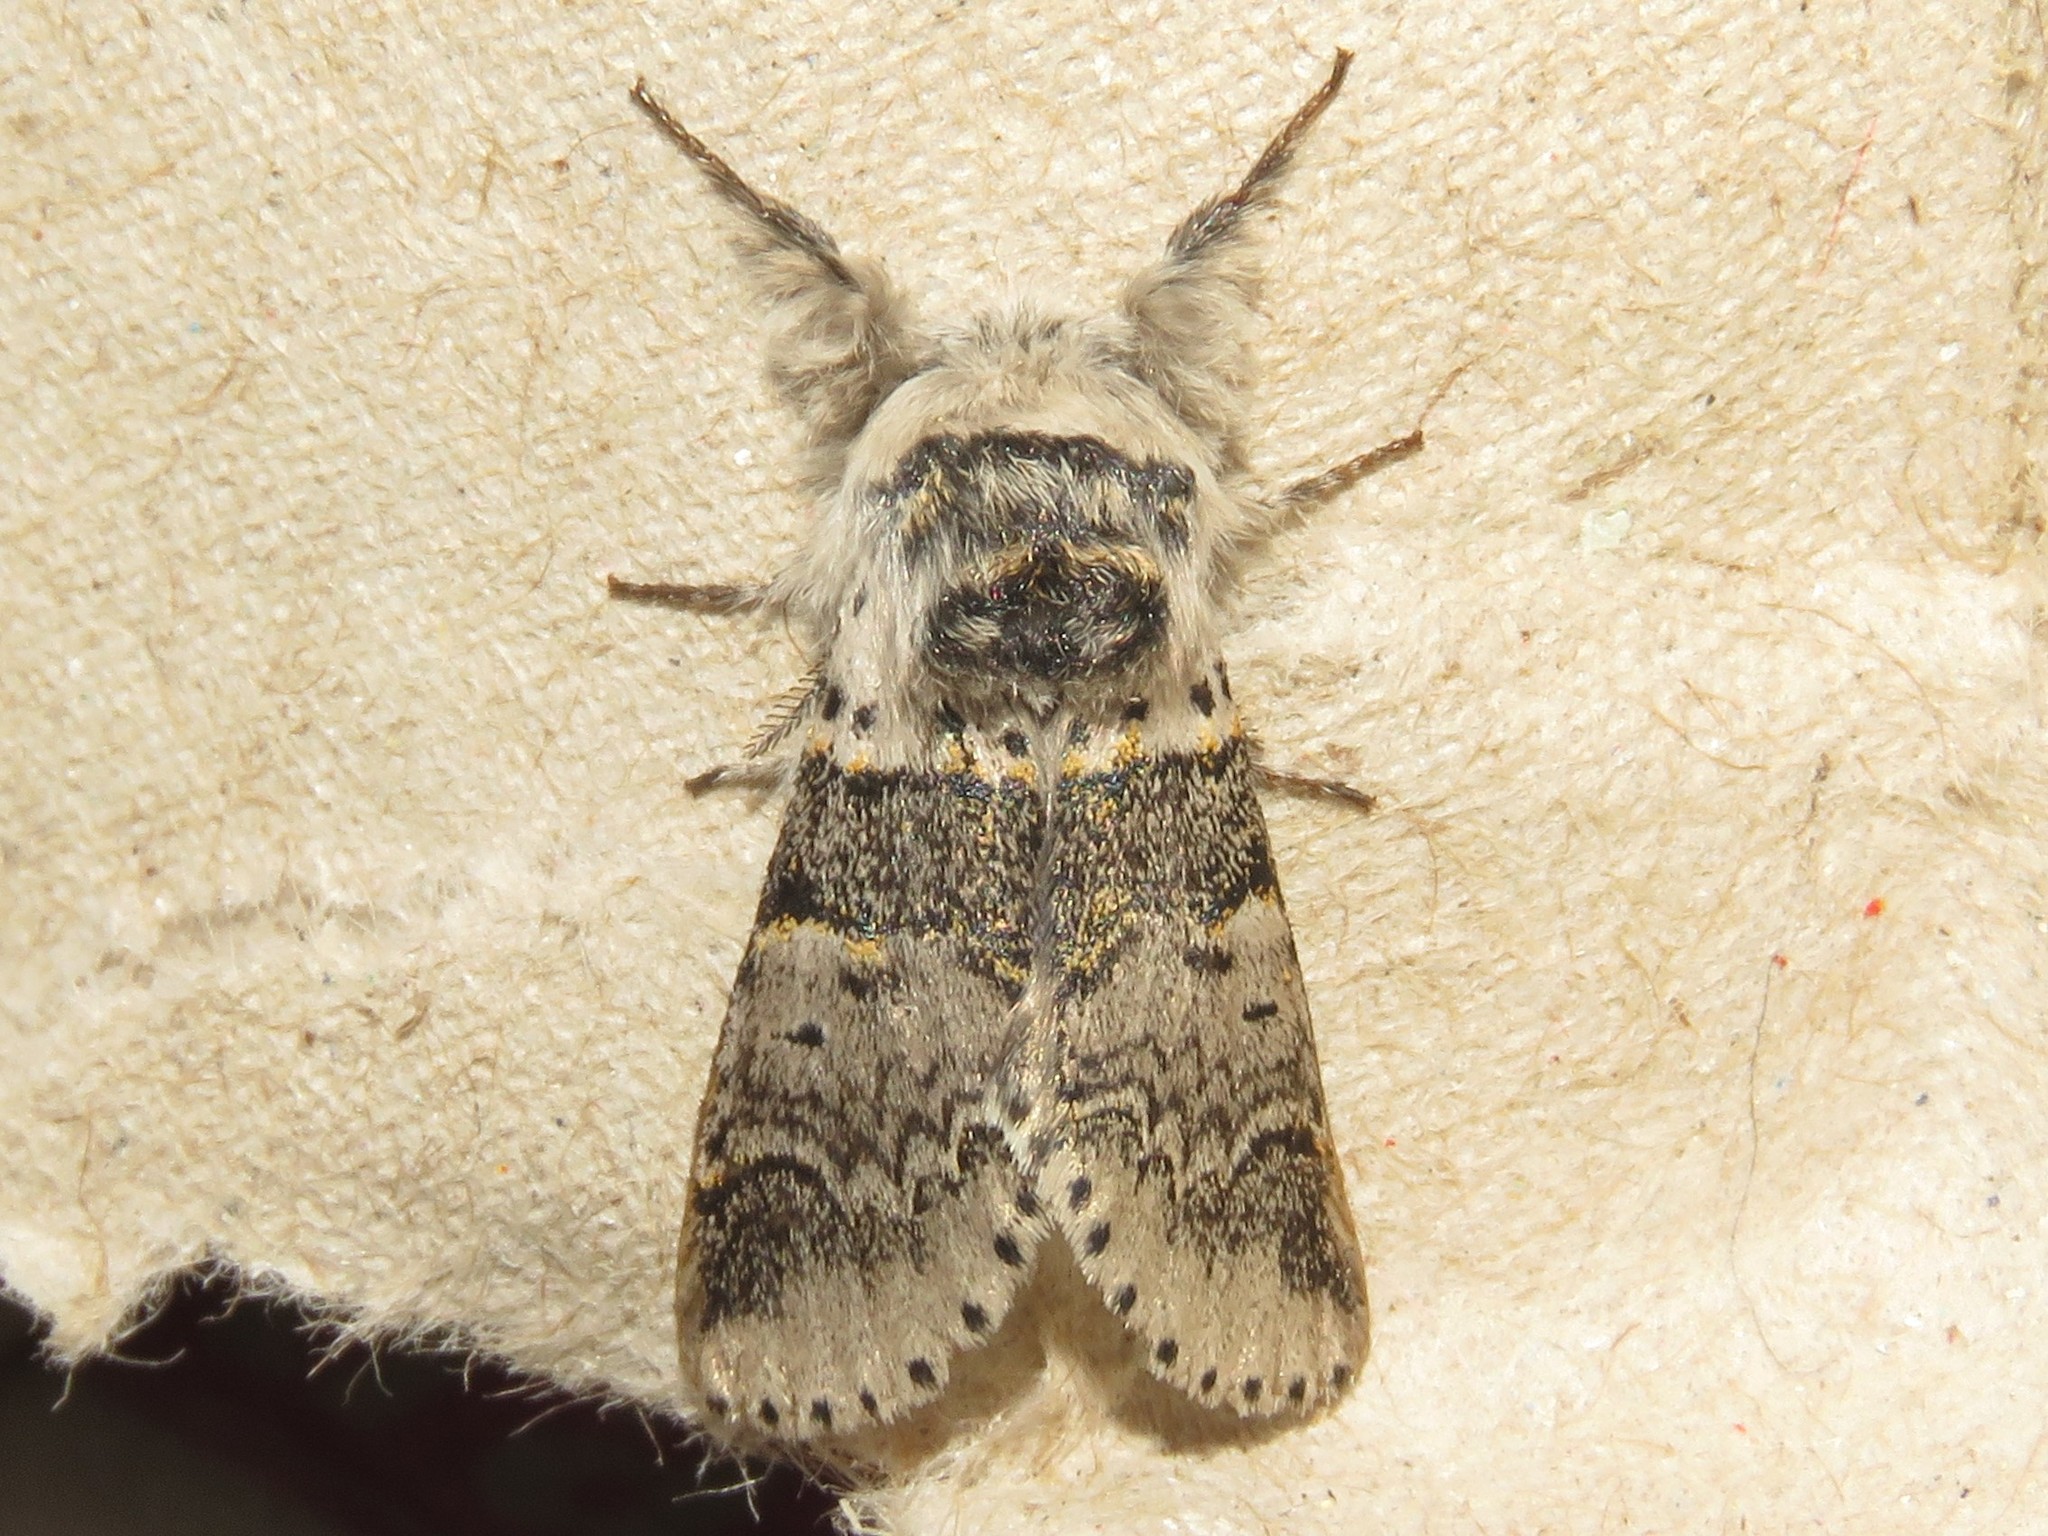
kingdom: Animalia
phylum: Arthropoda
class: Insecta
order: Lepidoptera
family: Notodontidae
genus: Furcula
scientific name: Furcula occidentalis
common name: Western furcula moth
